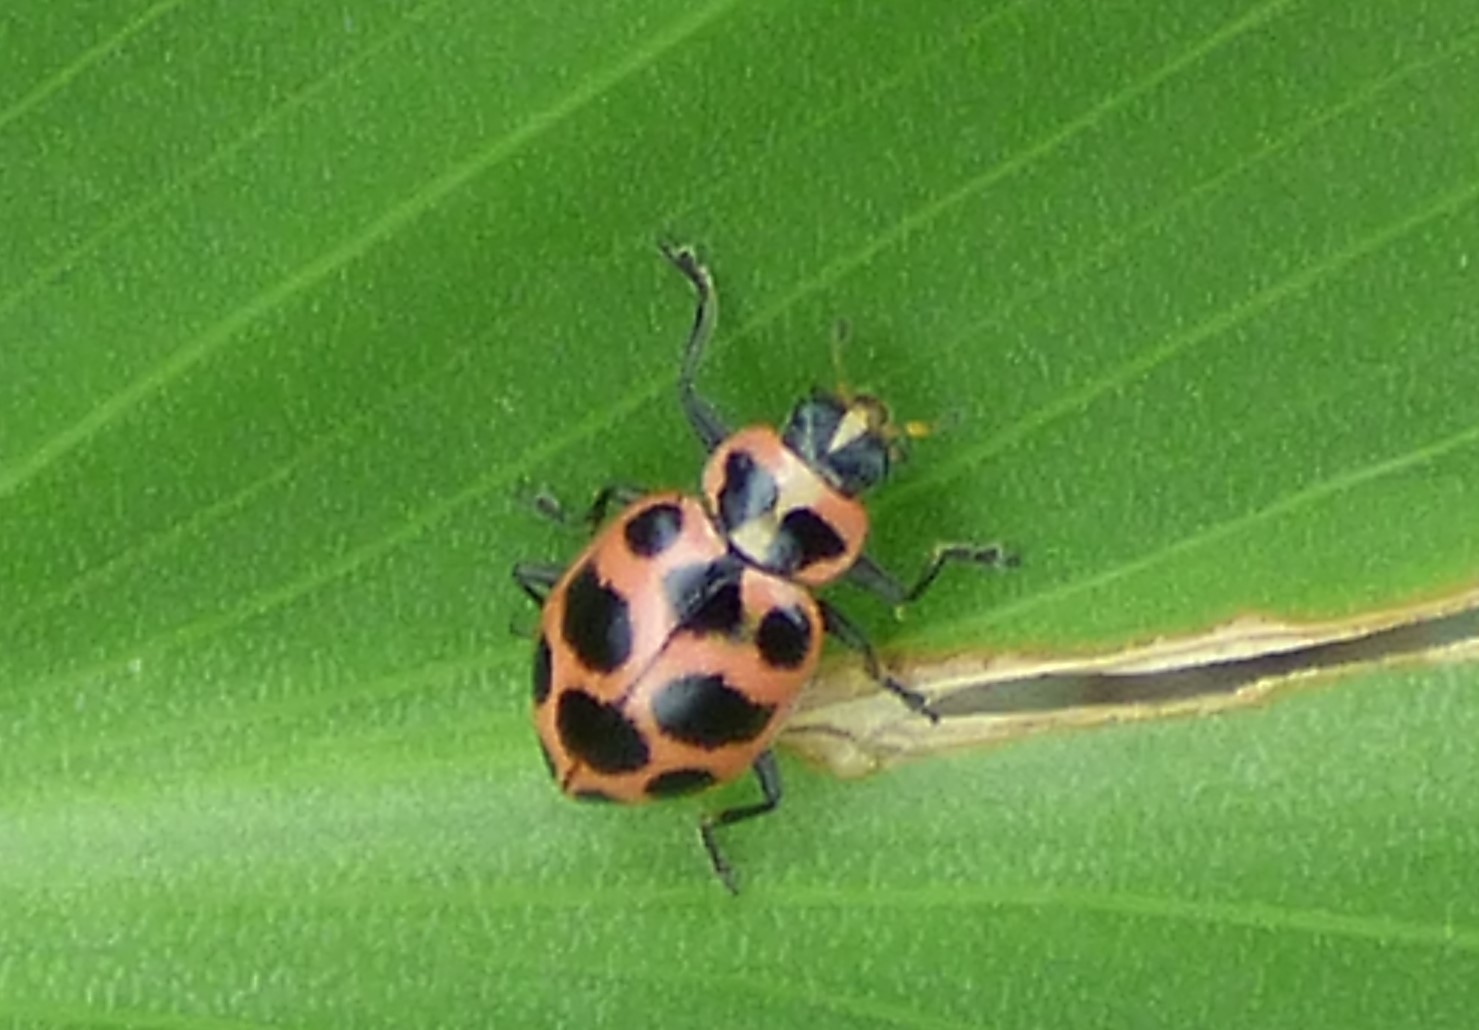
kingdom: Animalia
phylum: Arthropoda
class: Insecta
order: Coleoptera
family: Coccinellidae
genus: Coleomegilla
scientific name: Coleomegilla maculata
